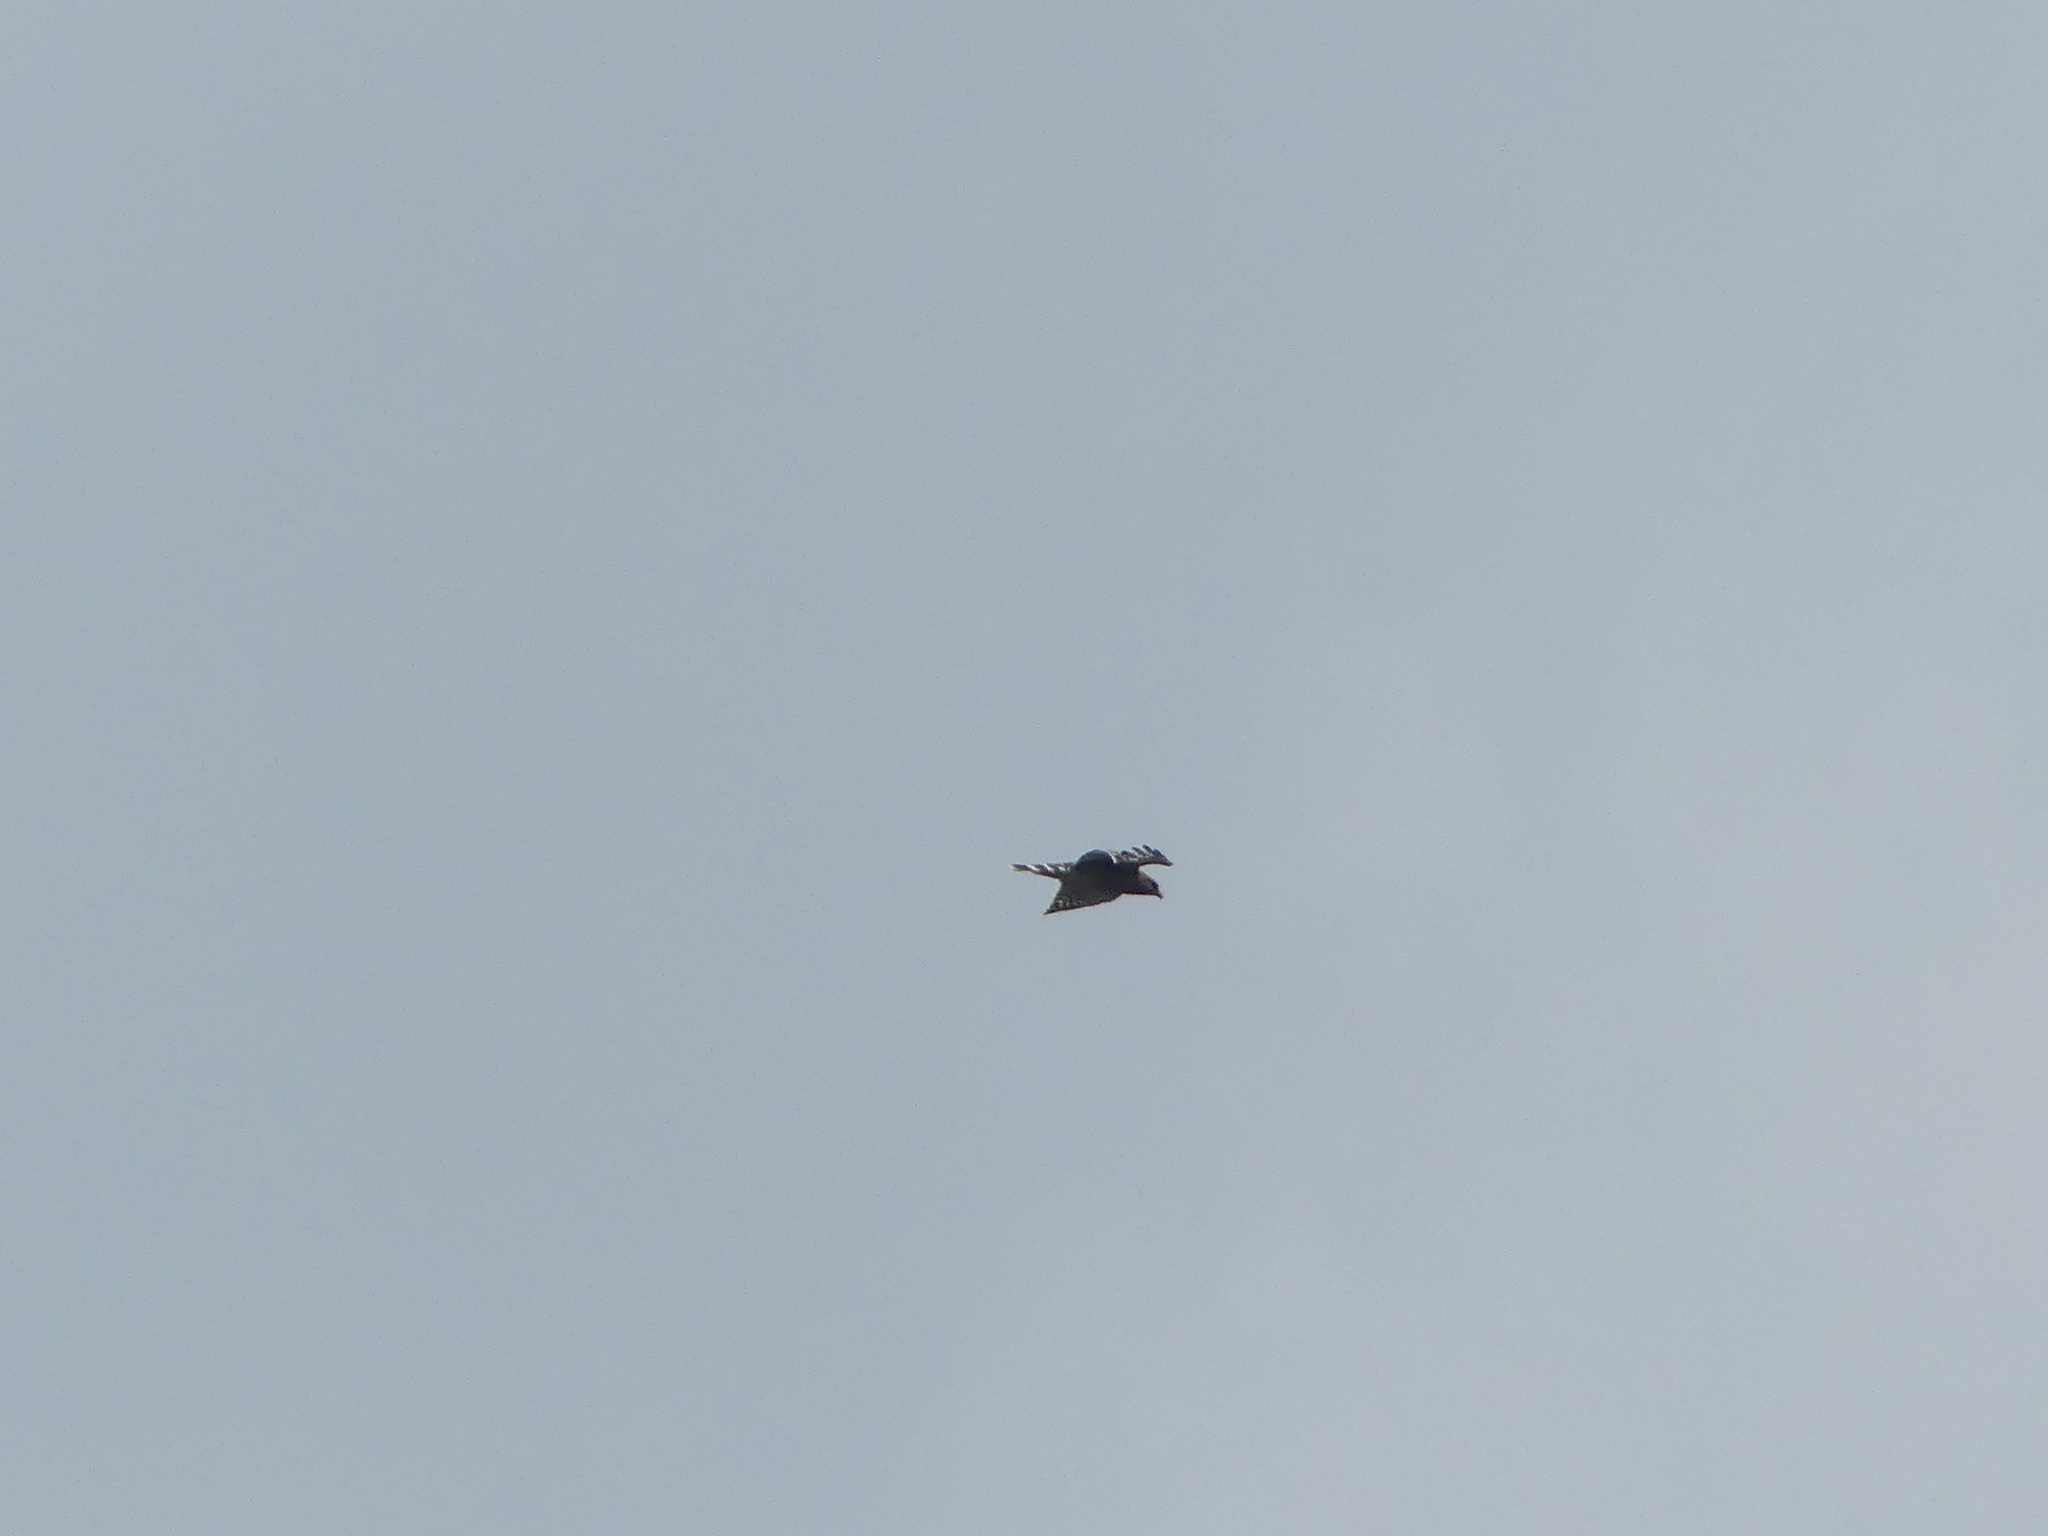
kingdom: Animalia
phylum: Chordata
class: Aves
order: Accipitriformes
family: Accipitridae
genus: Buteo
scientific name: Buteo lineatus
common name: Red-shouldered hawk
